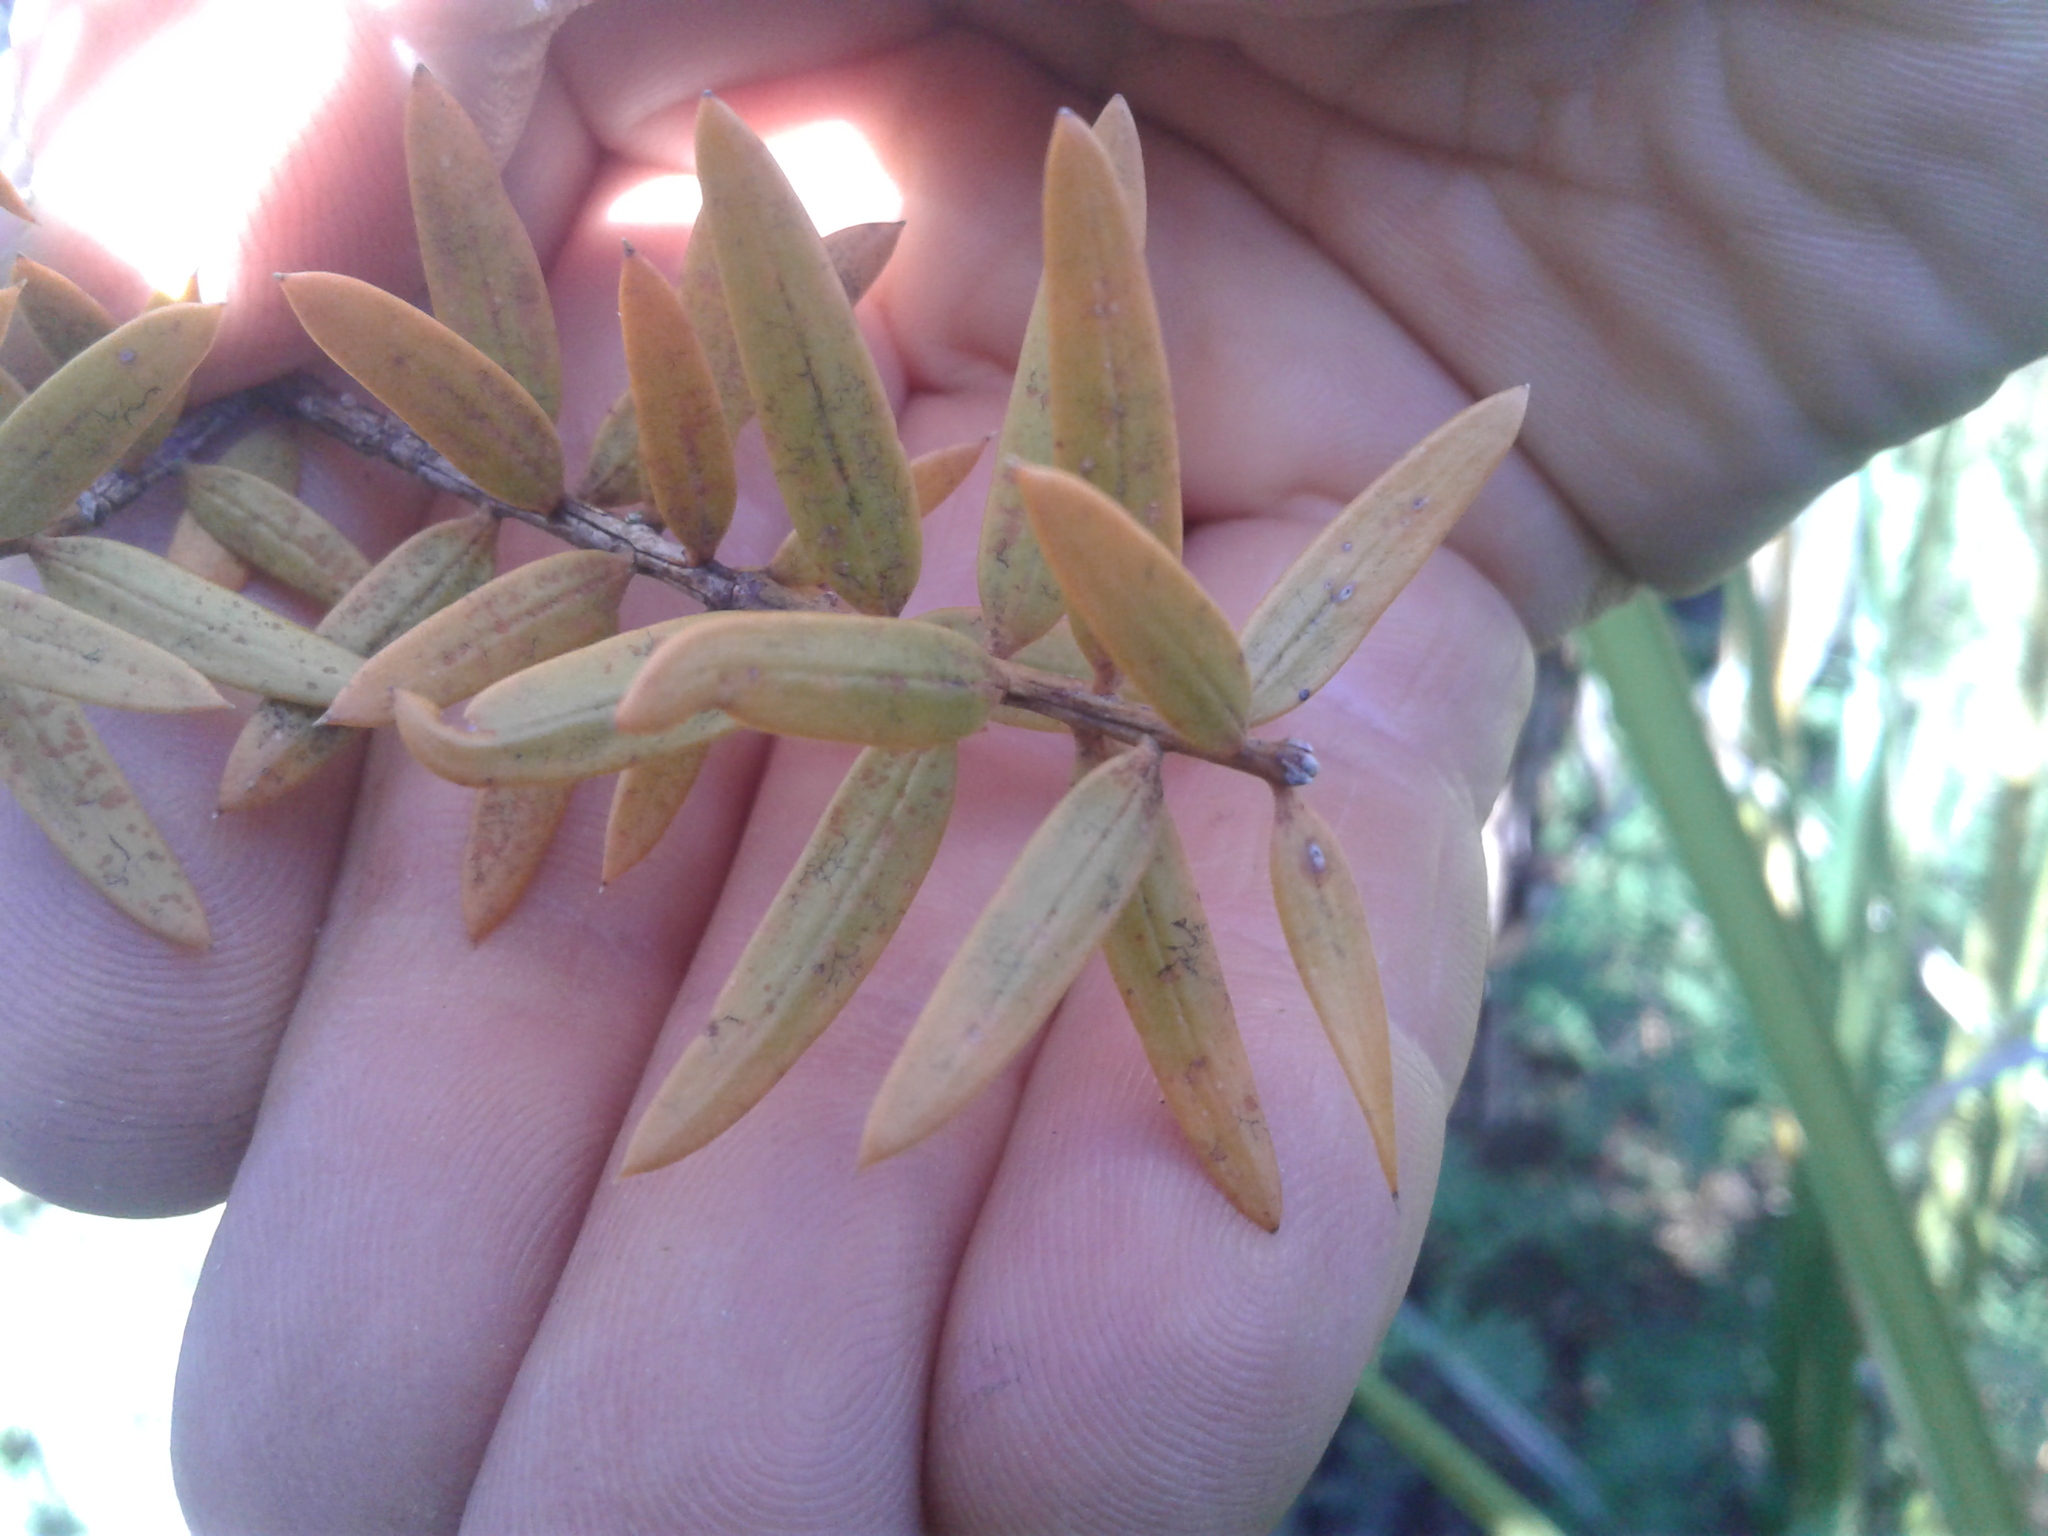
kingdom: Plantae
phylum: Tracheophyta
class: Pinopsida
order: Pinales
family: Podocarpaceae
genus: Podocarpus
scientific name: Podocarpus totara
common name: Totara
